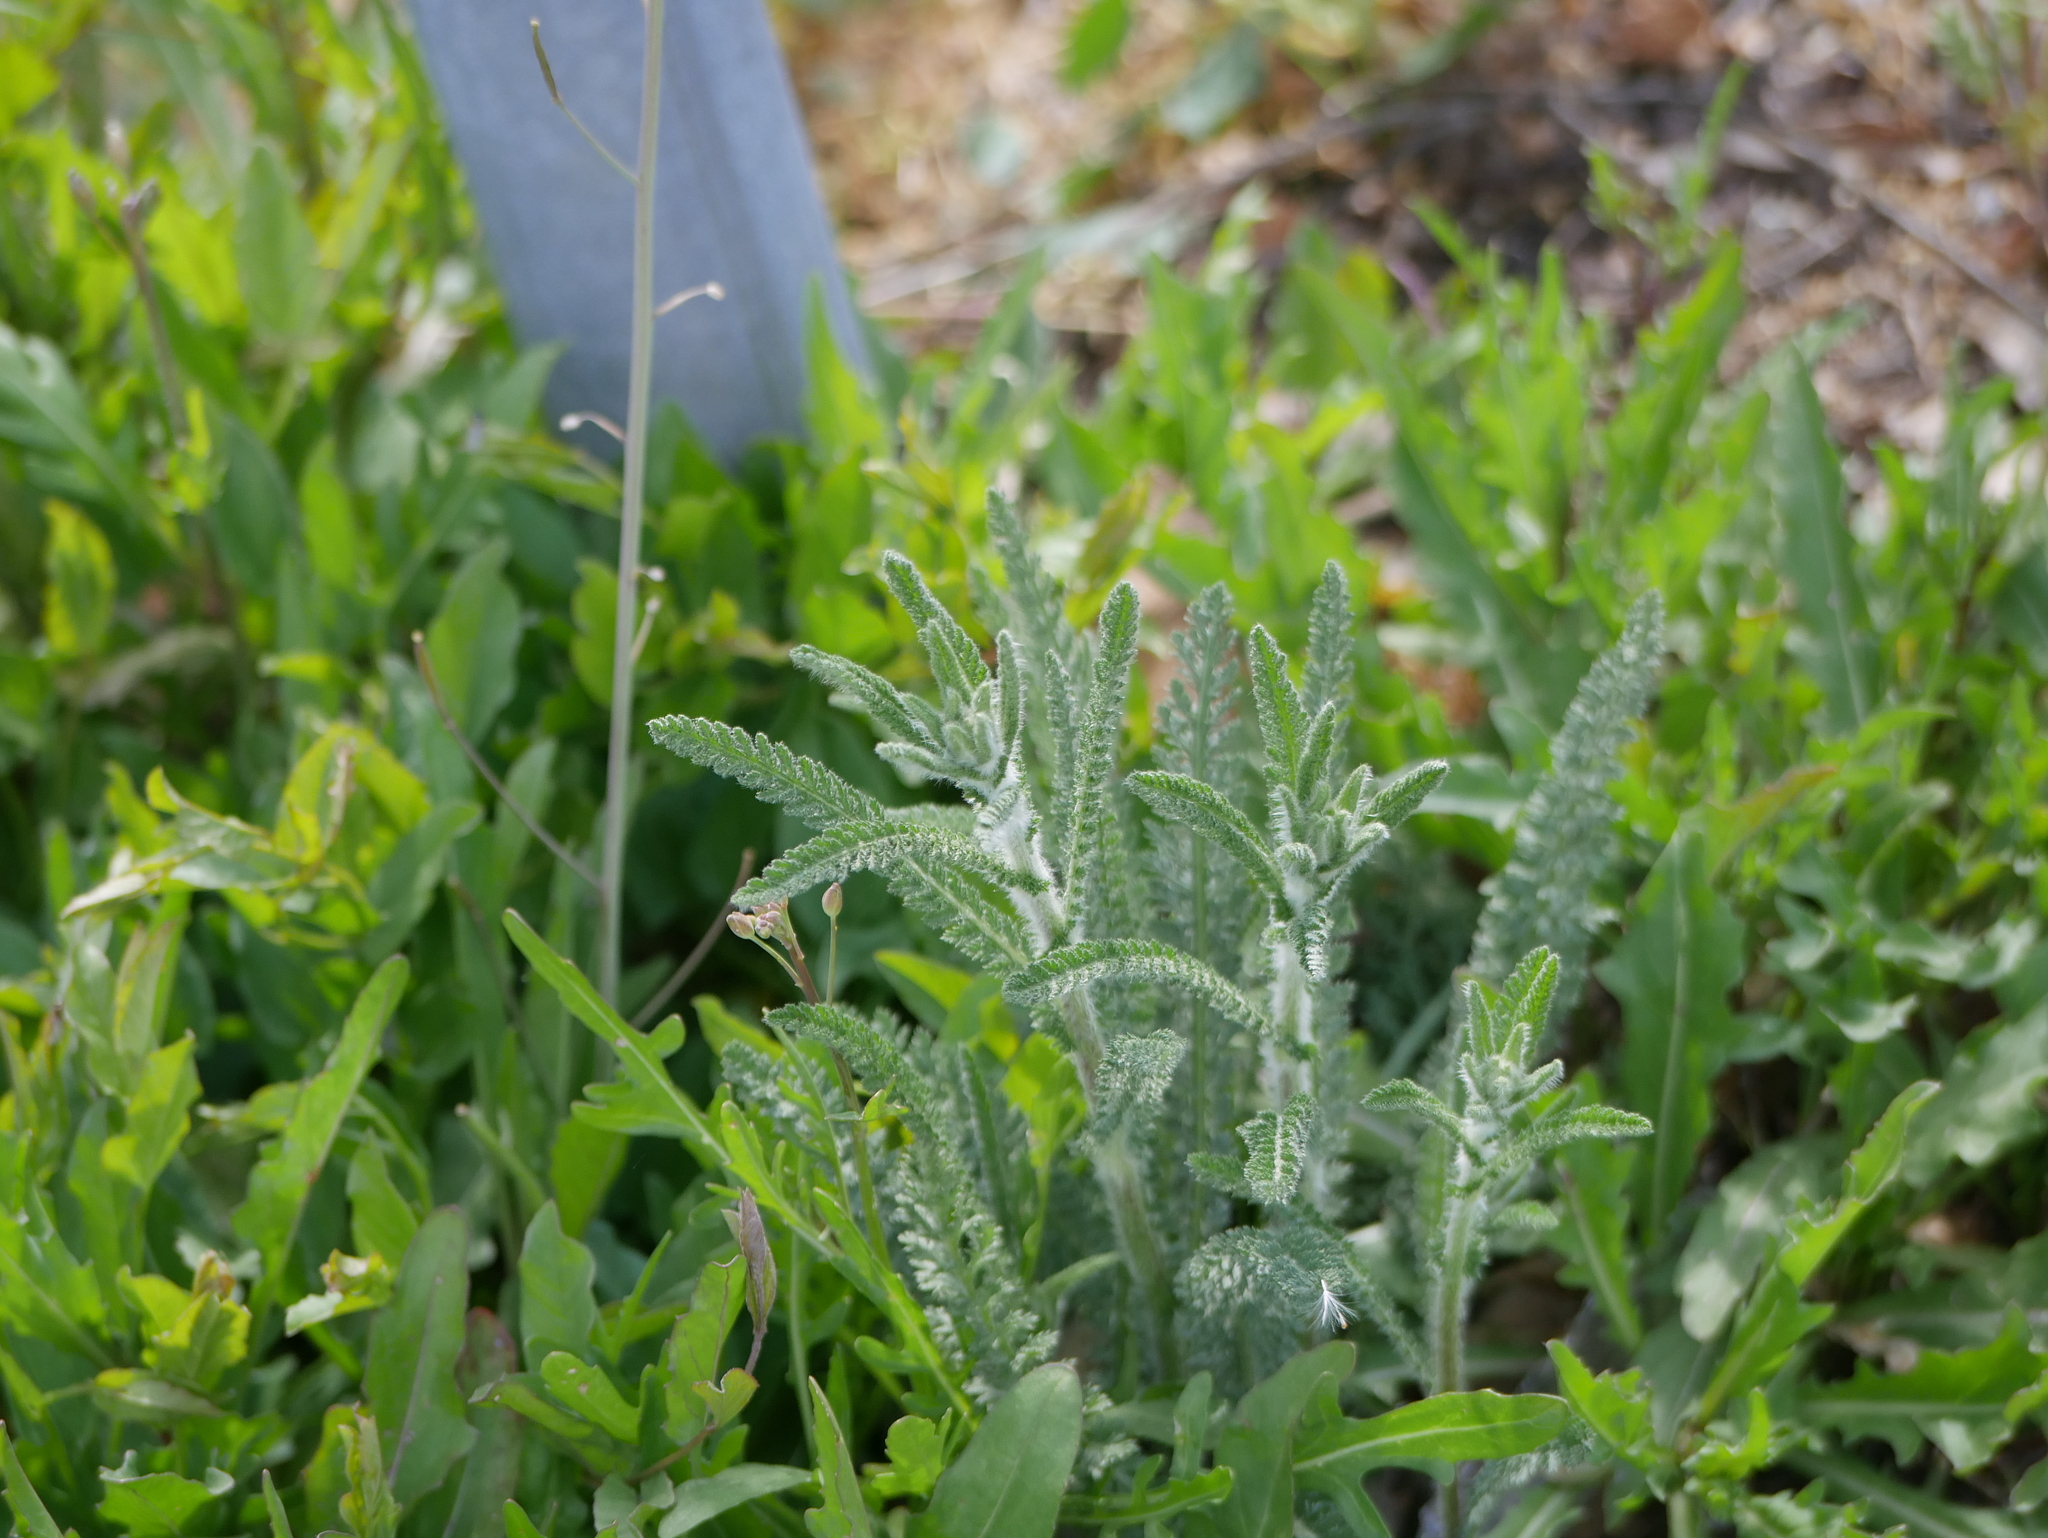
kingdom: Plantae
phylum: Tracheophyta
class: Magnoliopsida
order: Asterales
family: Asteraceae
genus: Achillea
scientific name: Achillea millefolium
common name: Yarrow
